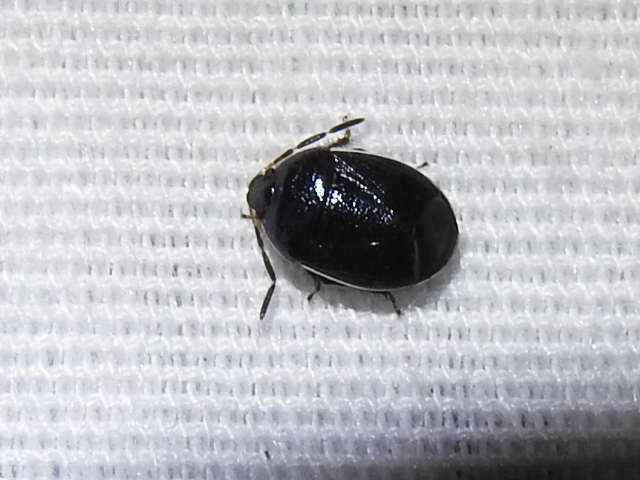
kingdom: Animalia
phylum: Arthropoda
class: Insecta
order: Hemiptera
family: Cydnidae
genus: Sehirus
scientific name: Sehirus cinctus
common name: White-margined burrower bug
